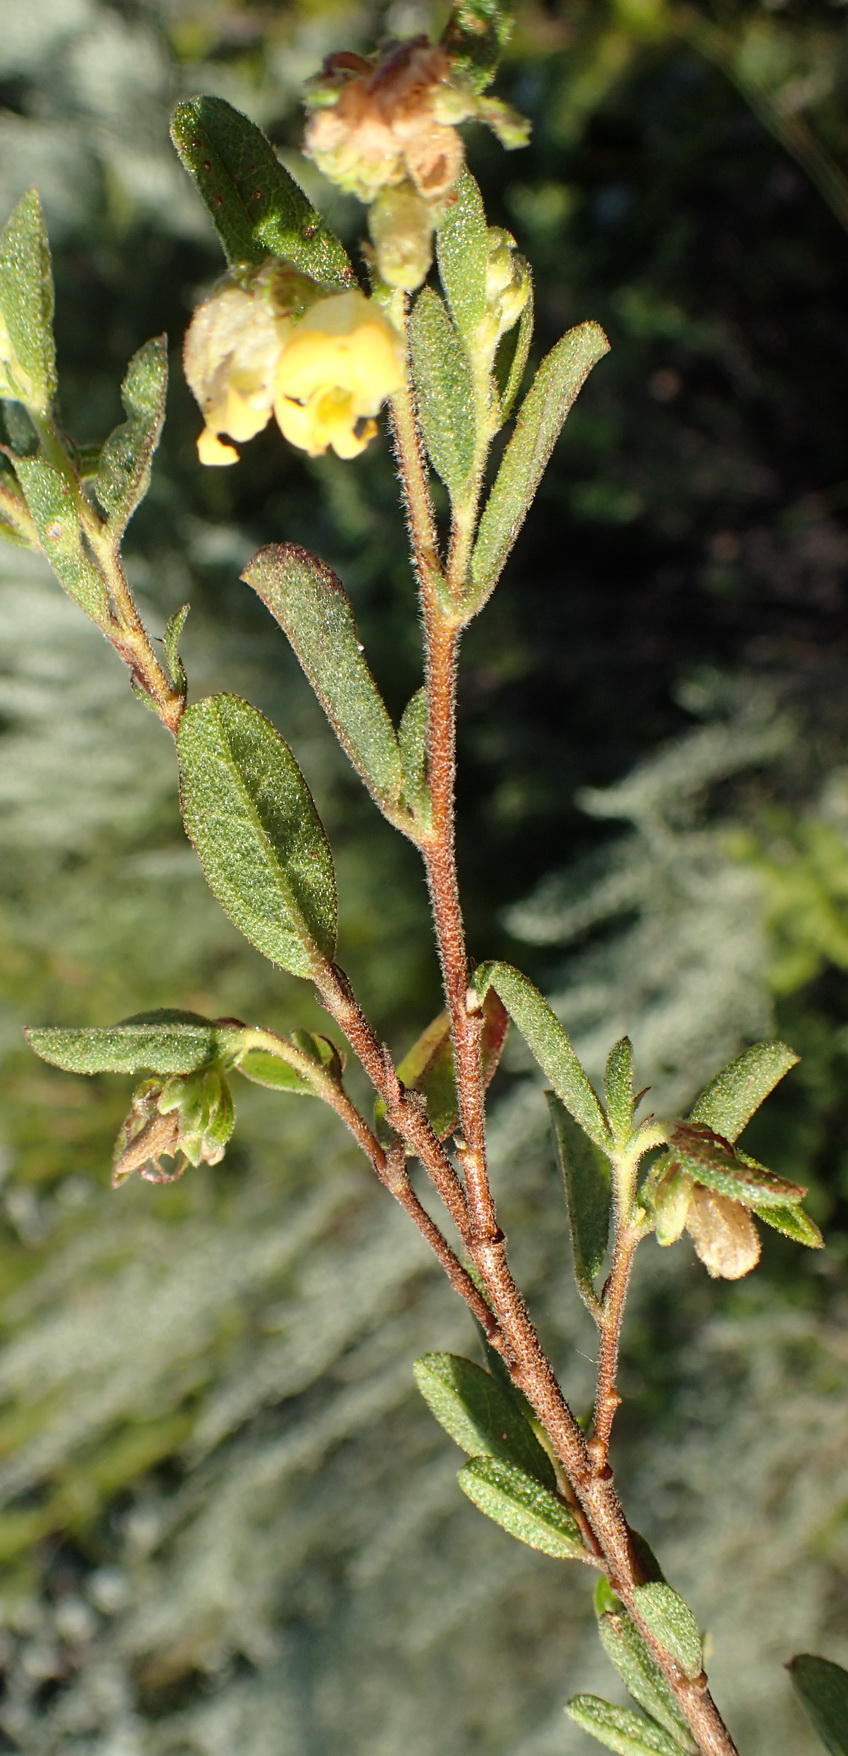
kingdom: Plantae
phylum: Tracheophyta
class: Magnoliopsida
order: Malvales
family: Malvaceae
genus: Hermannia
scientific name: Hermannia salviifolia
